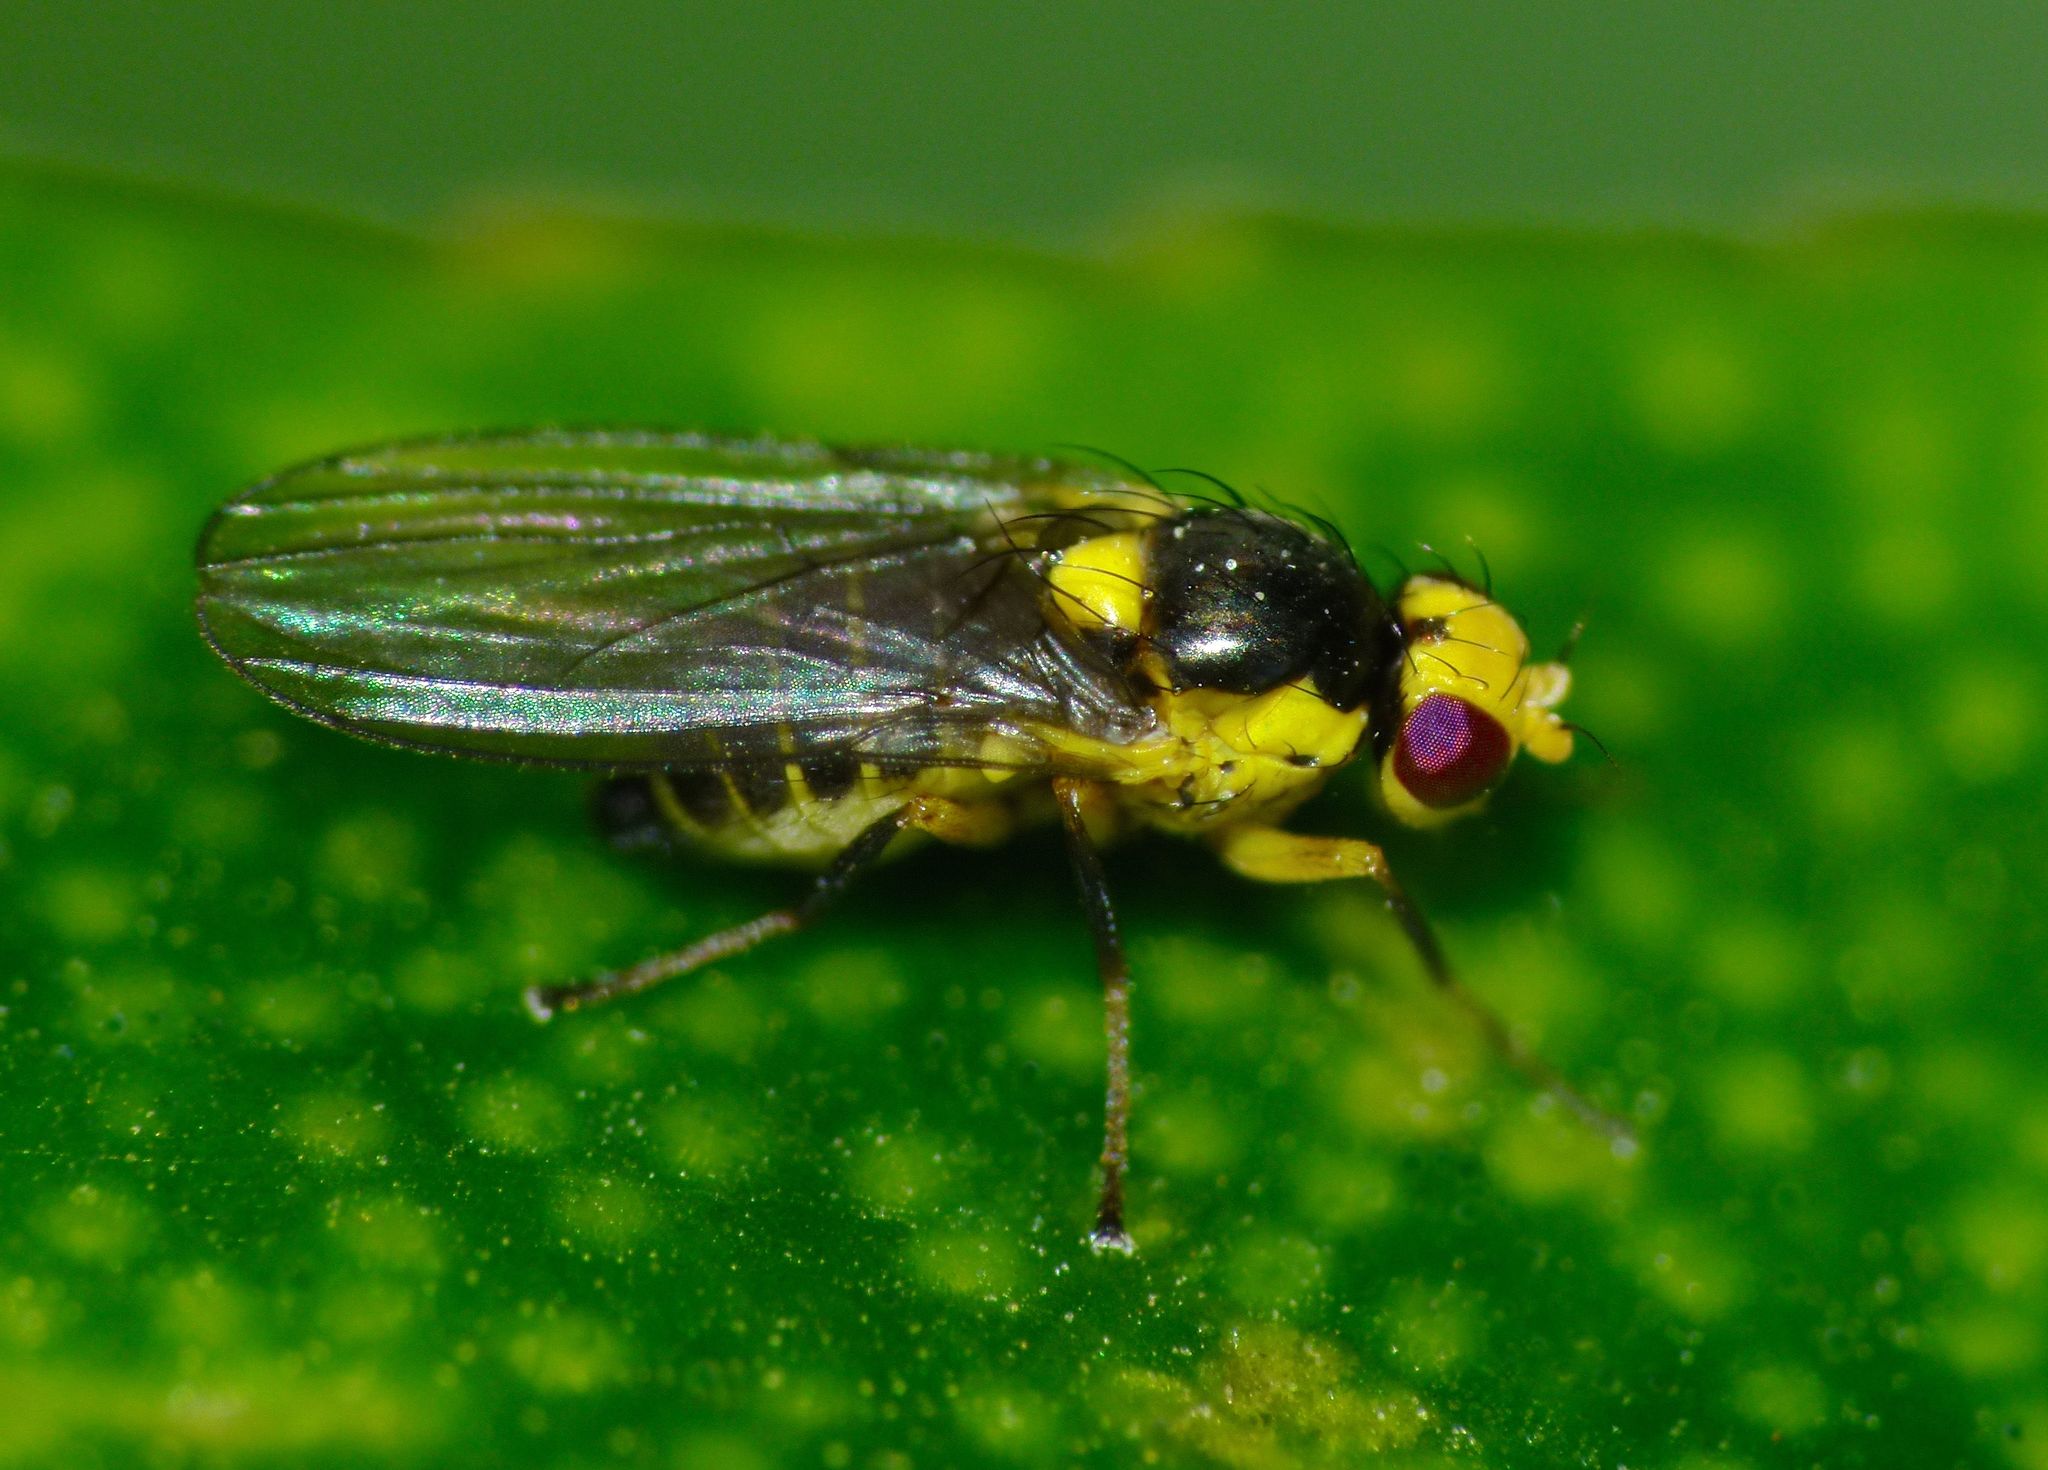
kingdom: Animalia
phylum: Arthropoda
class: Insecta
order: Diptera
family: Agromyzidae
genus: Liriomyza
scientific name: Liriomyza citreifemorata
